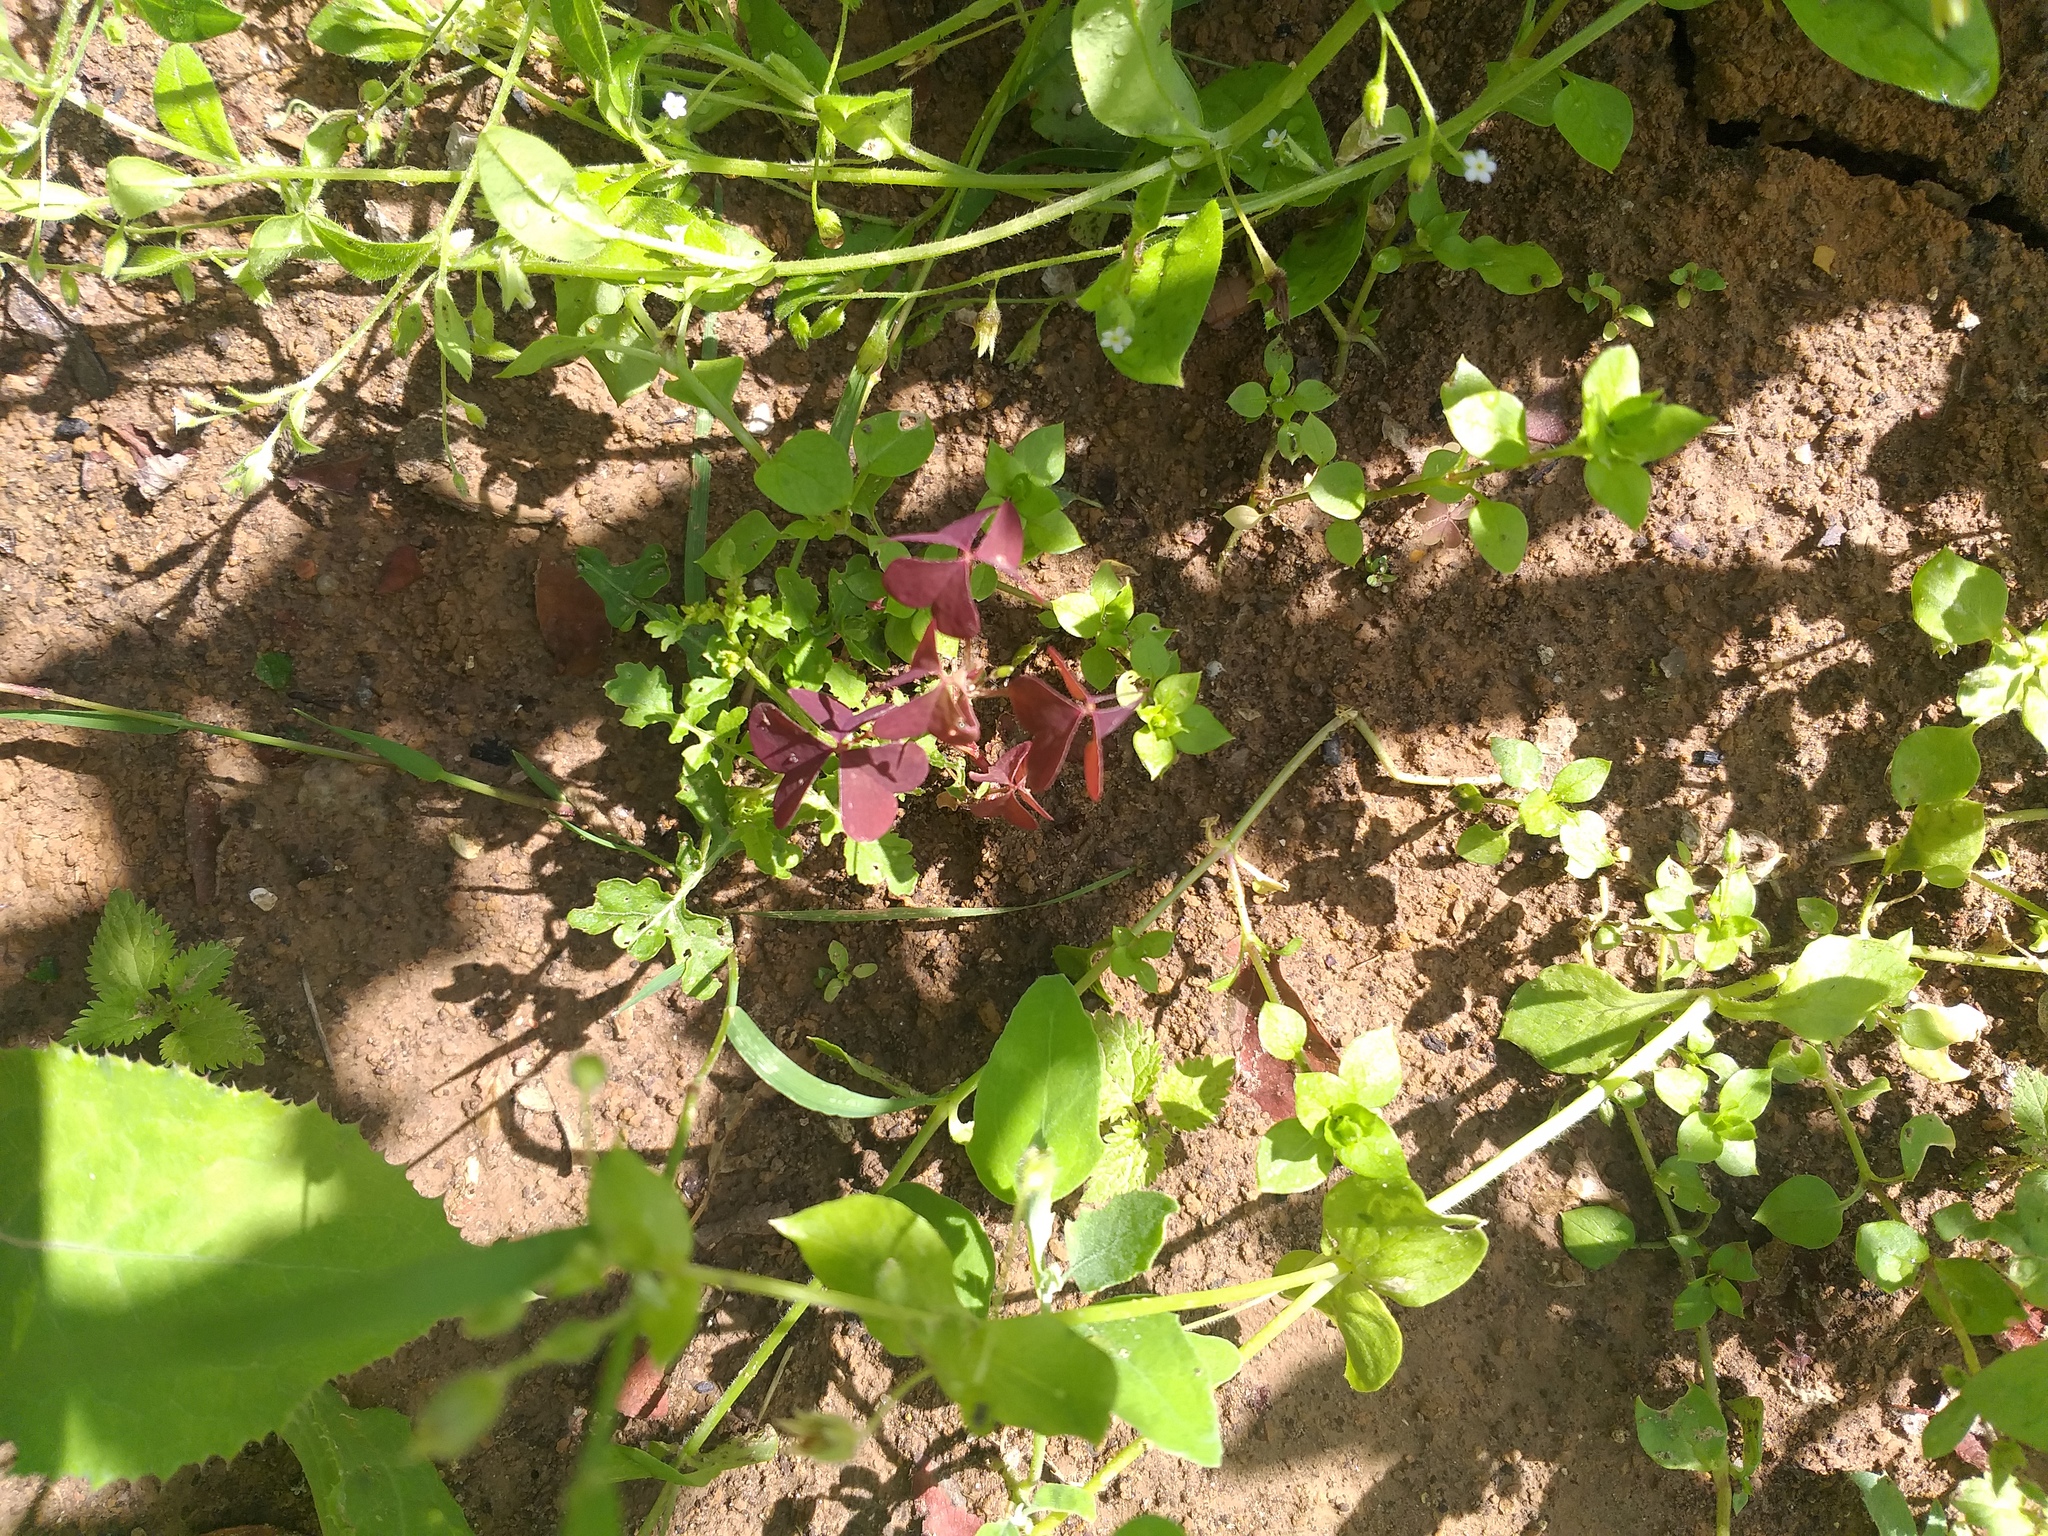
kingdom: Plantae
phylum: Tracheophyta
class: Magnoliopsida
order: Oxalidales
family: Oxalidaceae
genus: Oxalis
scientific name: Oxalis stricta
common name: Upright yellow-sorrel
